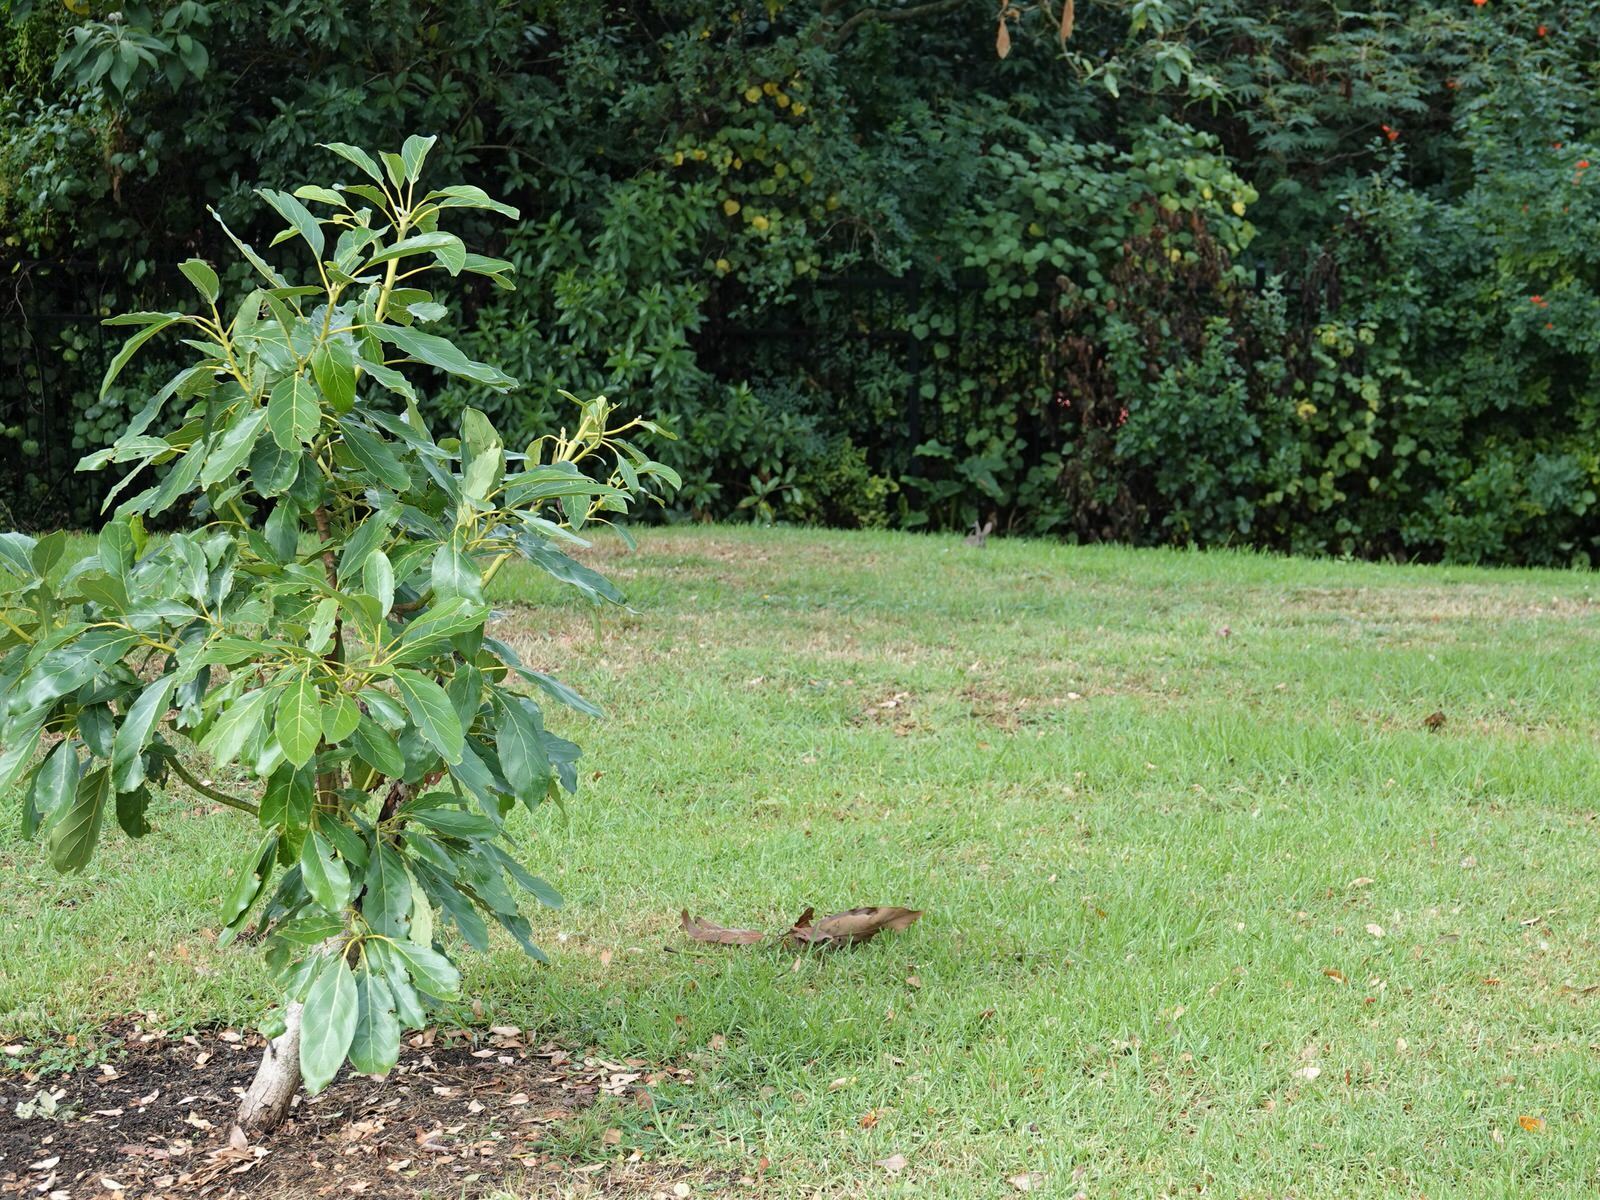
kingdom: Animalia
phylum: Chordata
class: Mammalia
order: Lagomorpha
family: Leporidae
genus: Oryctolagus
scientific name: Oryctolagus cuniculus
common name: European rabbit
